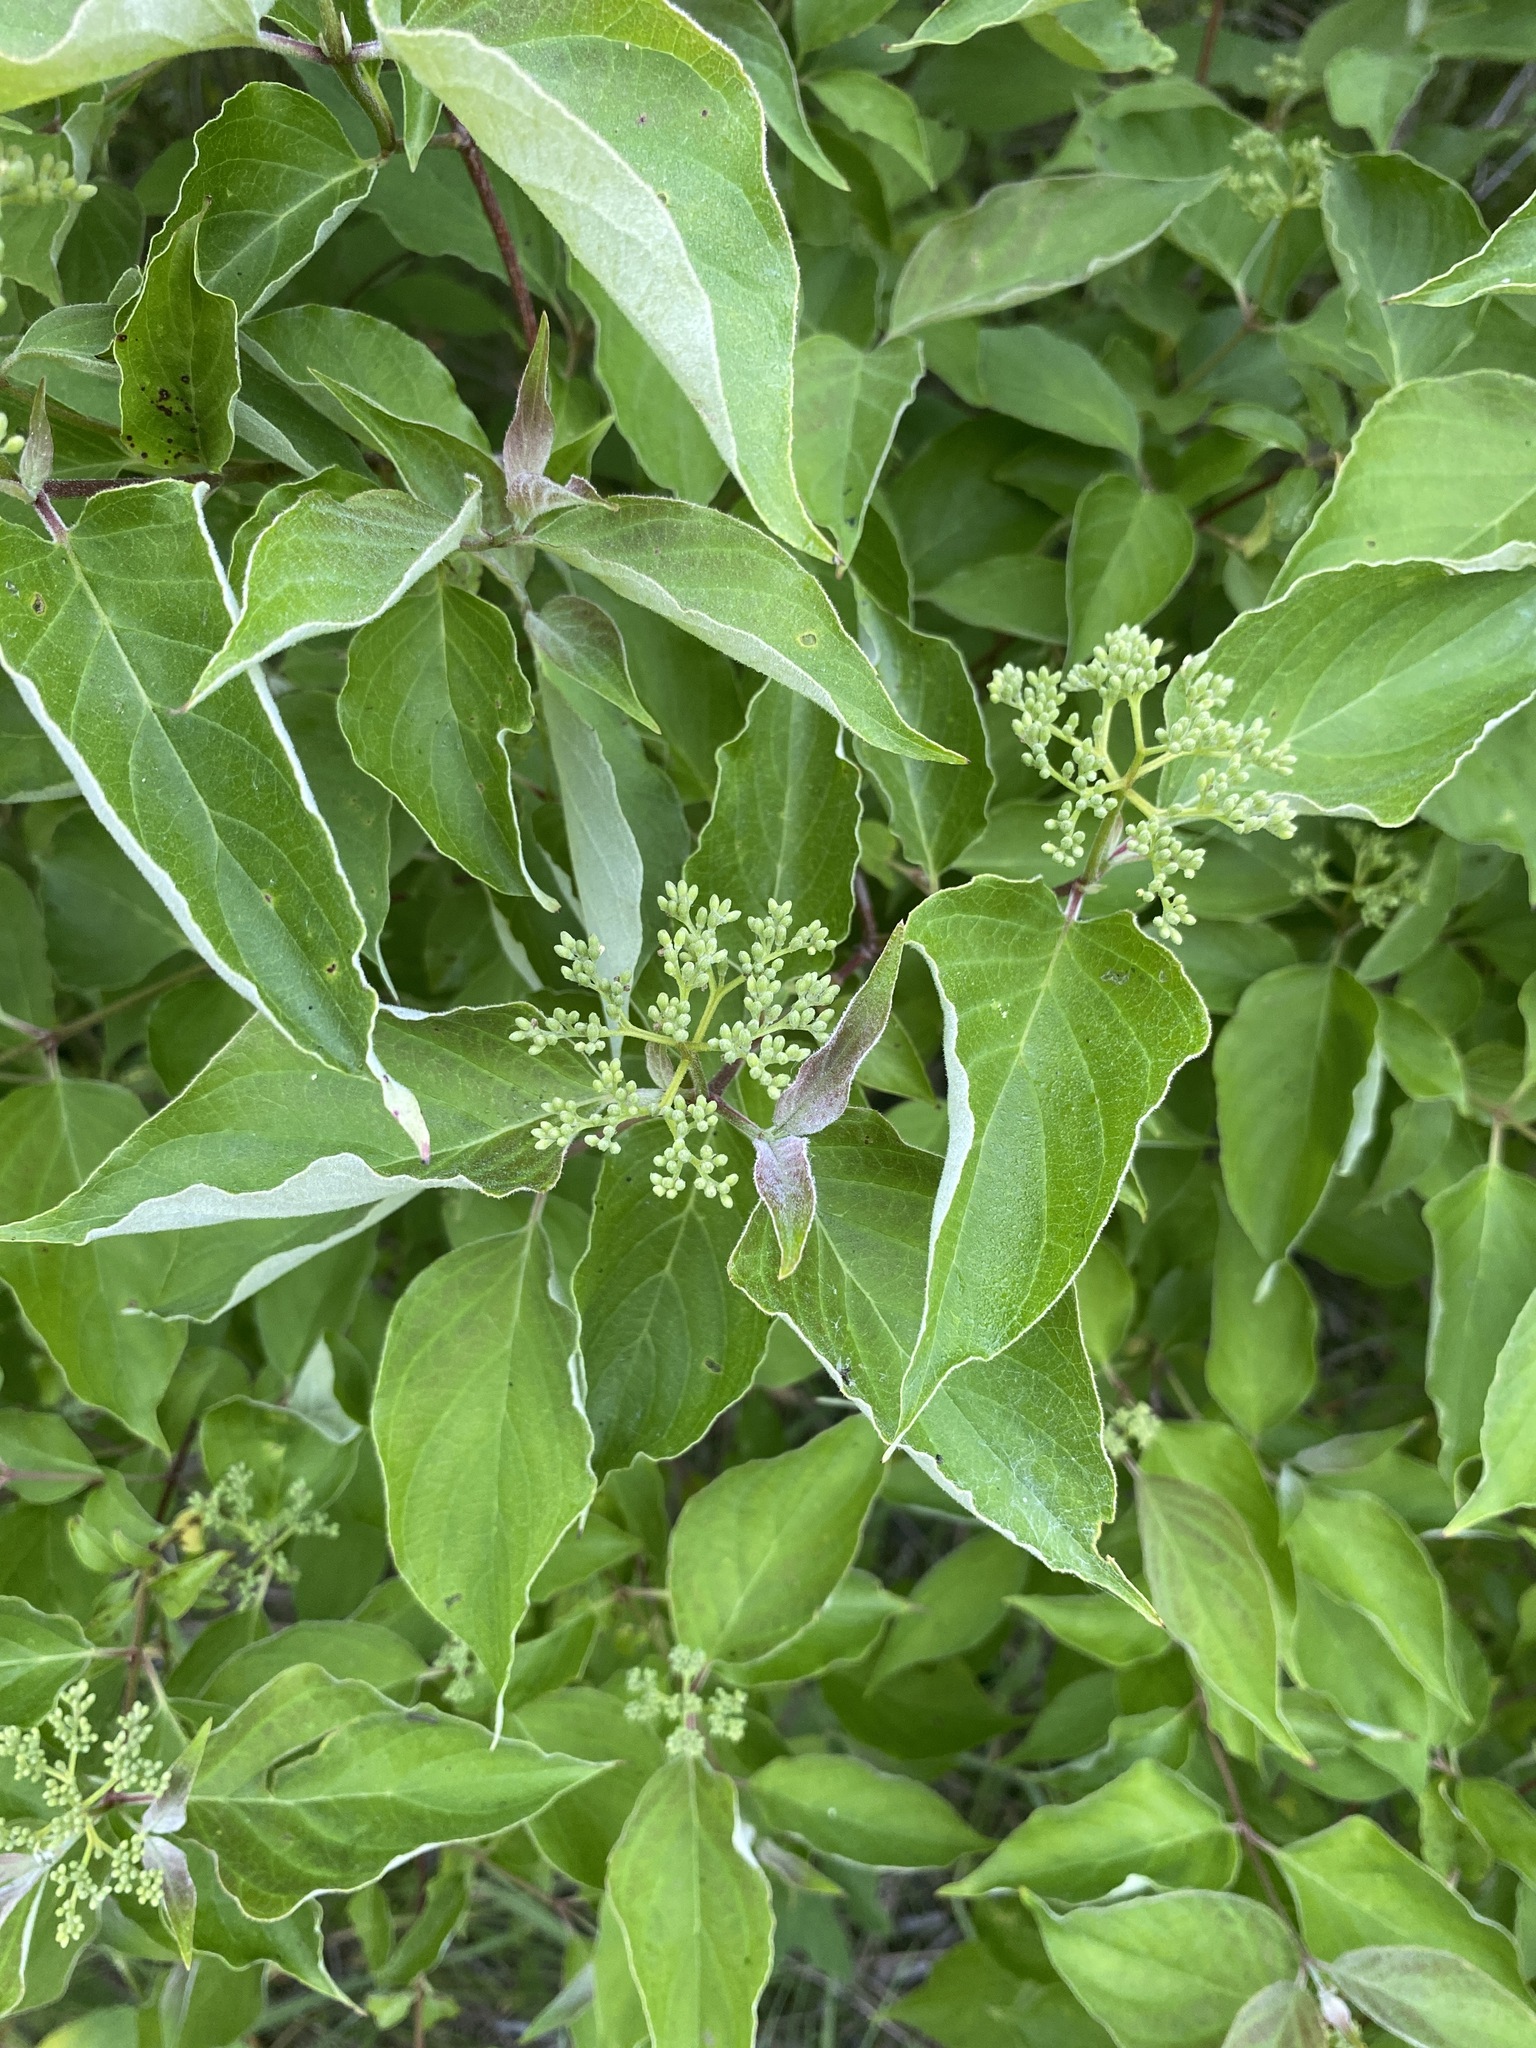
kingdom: Plantae
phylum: Tracheophyta
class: Magnoliopsida
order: Cornales
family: Cornaceae
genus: Cornus
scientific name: Cornus drummondii
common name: Rough-leaf dogwood
